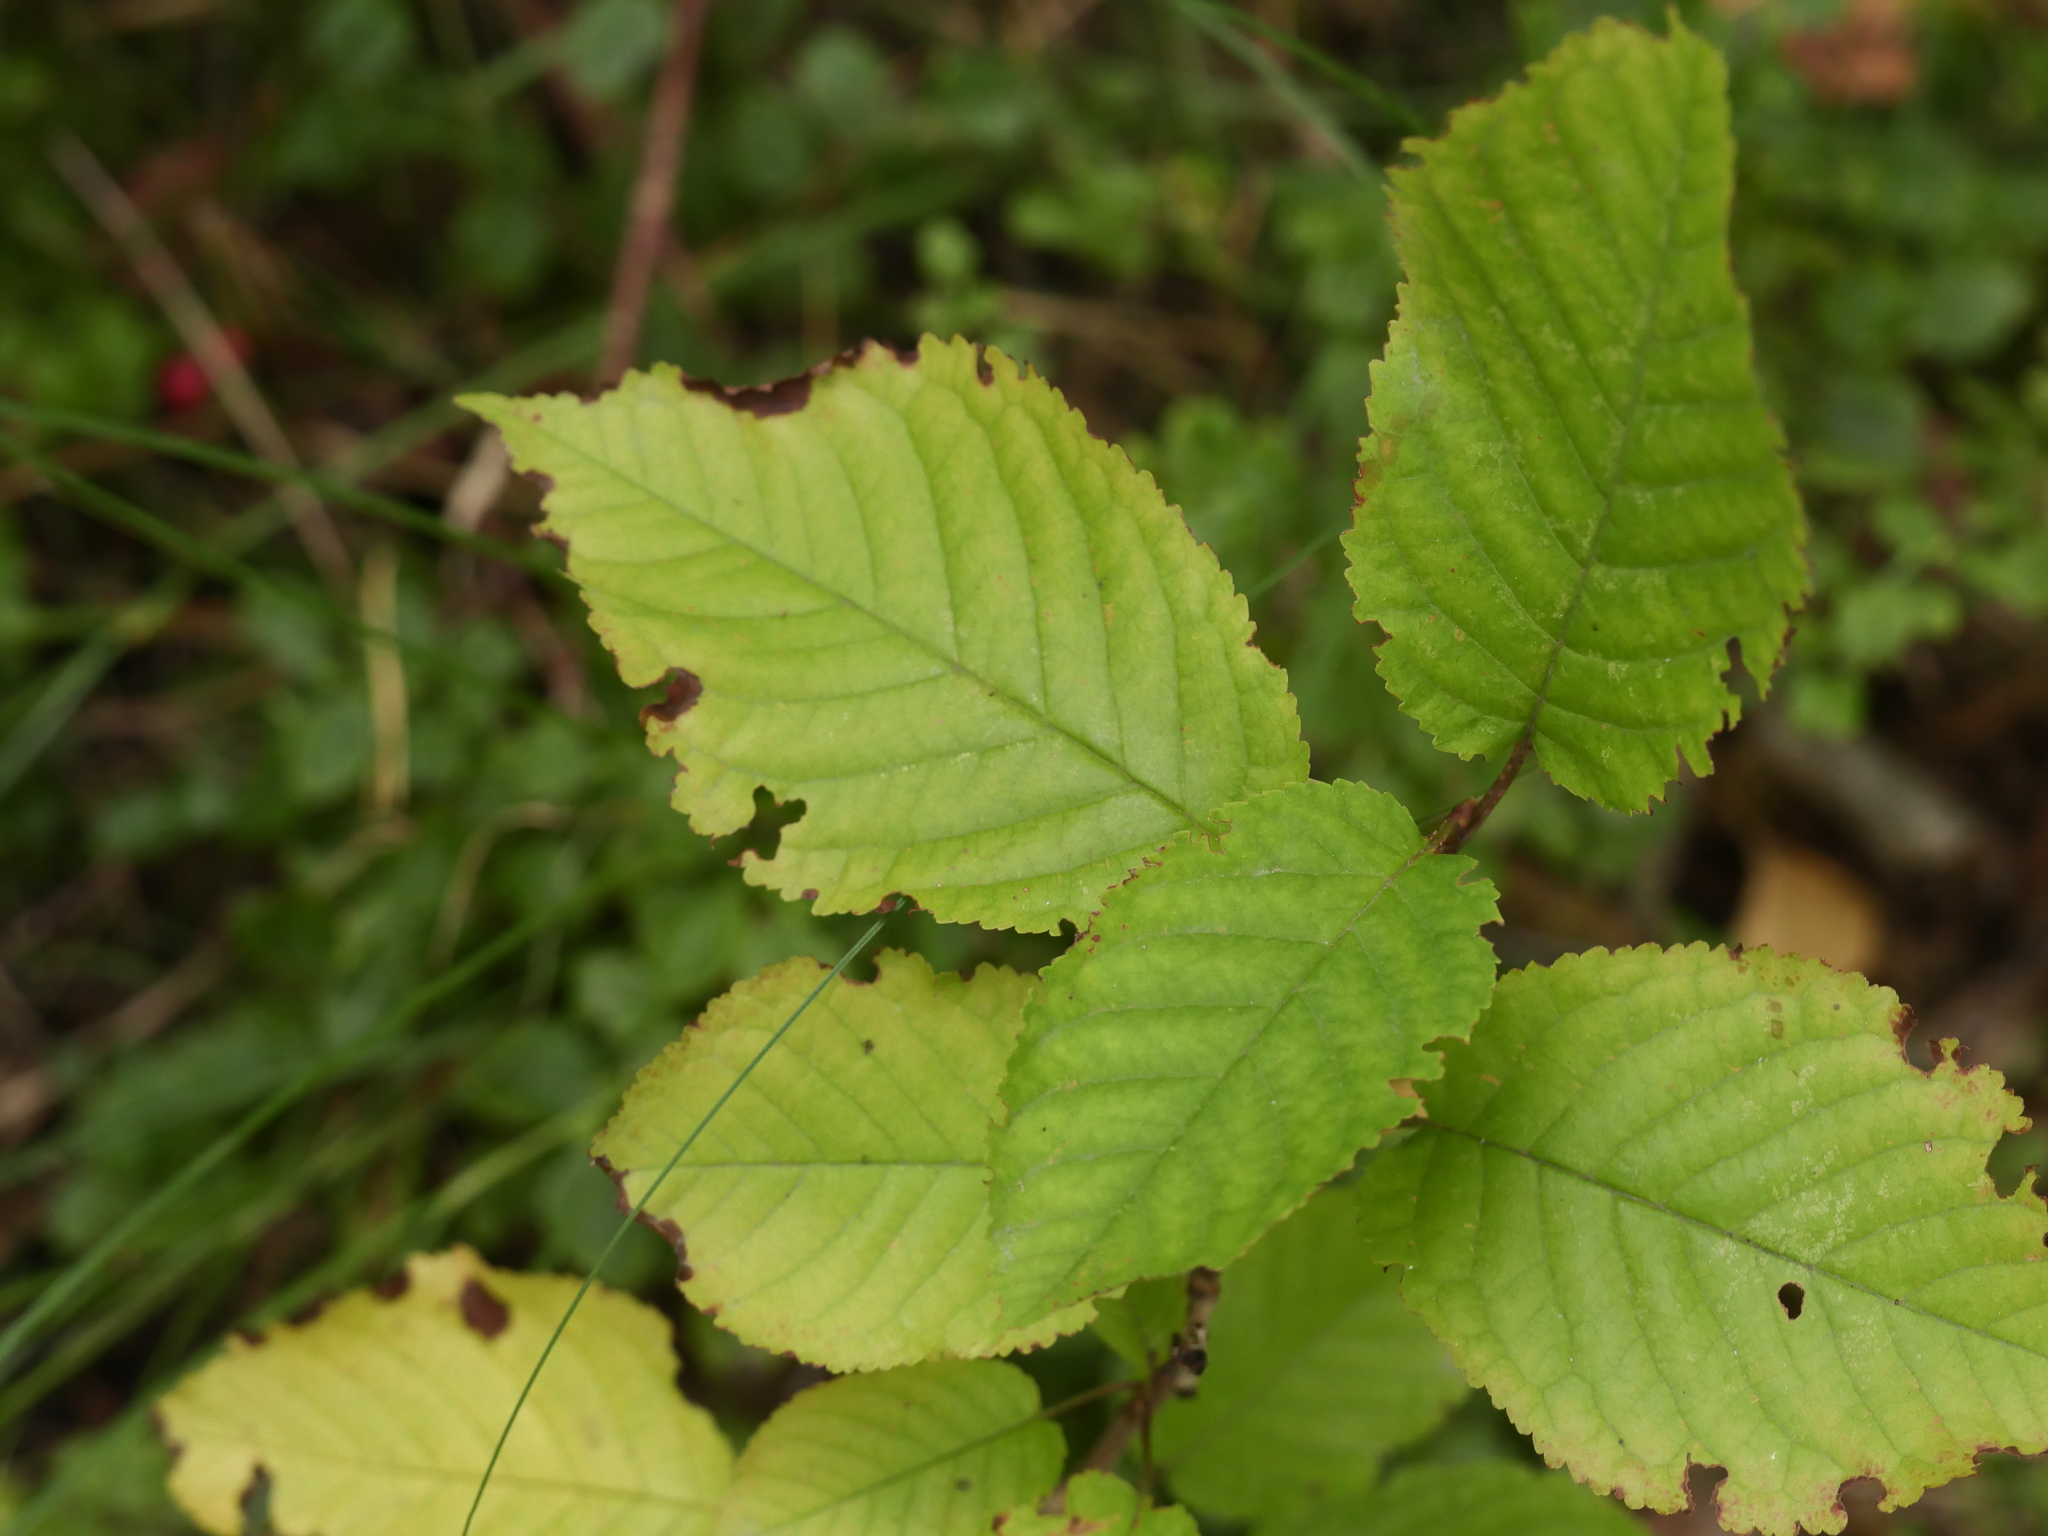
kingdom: Plantae
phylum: Tracheophyta
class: Magnoliopsida
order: Rosales
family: Rosaceae
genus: Prunus
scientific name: Prunus avium
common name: Sweet cherry
